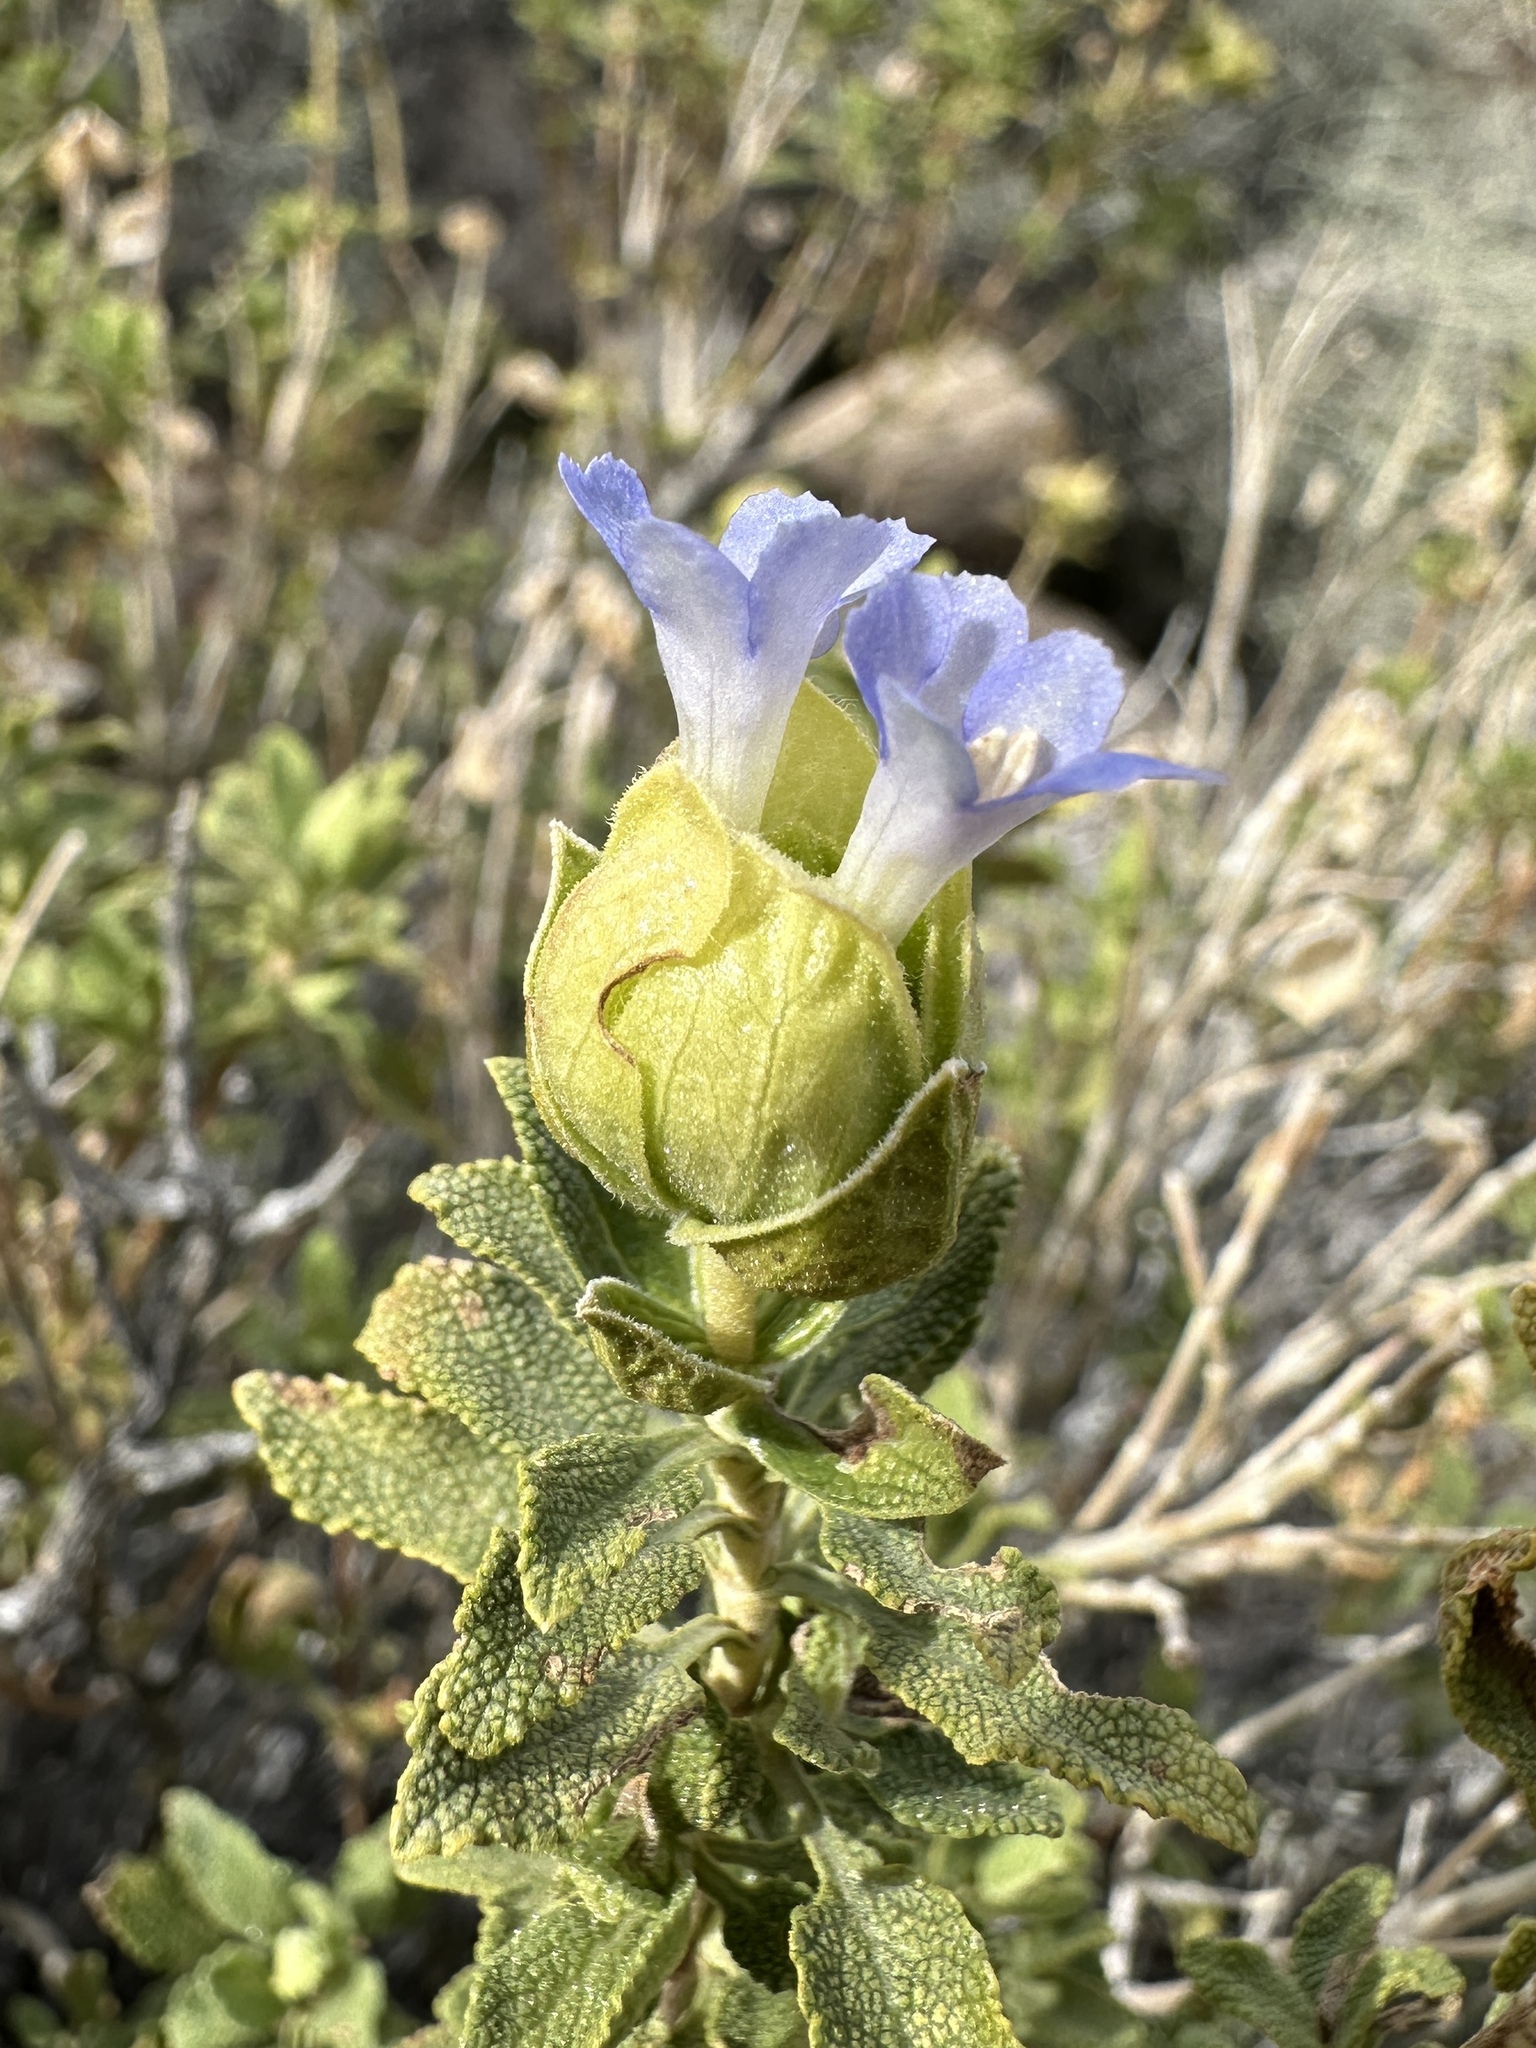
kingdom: Plantae
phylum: Tracheophyta
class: Magnoliopsida
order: Lamiales
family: Lamiaceae
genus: Salvia
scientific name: Salvia mohavensis
